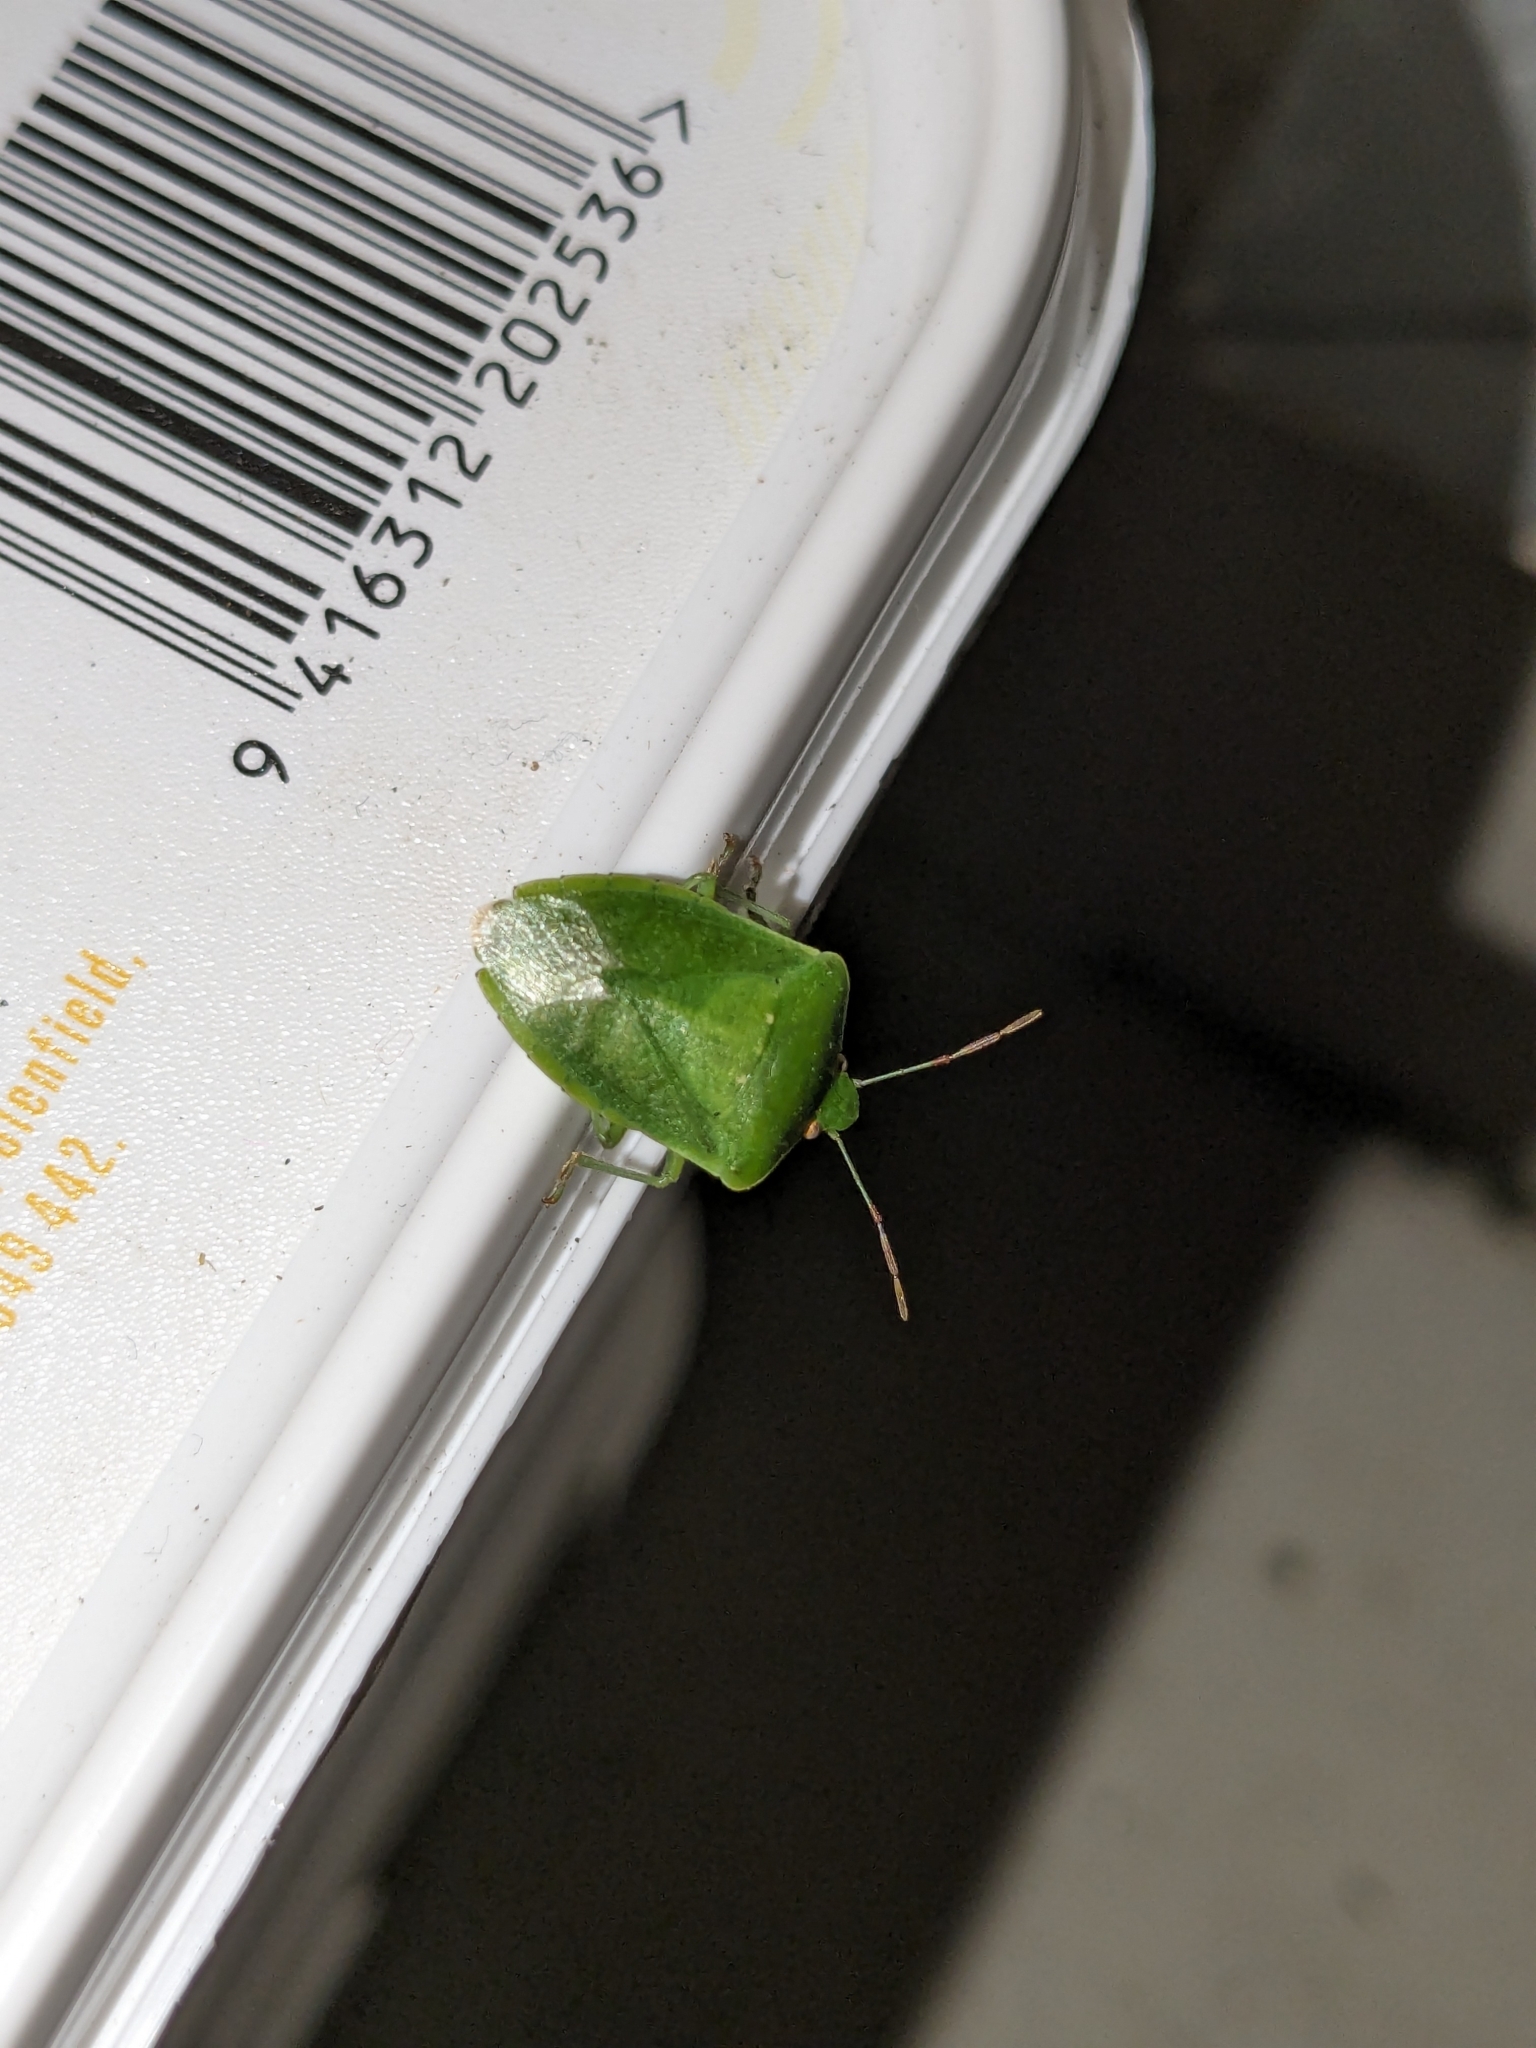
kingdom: Animalia
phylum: Arthropoda
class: Insecta
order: Hemiptera
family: Pentatomidae
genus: Nezara
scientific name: Nezara viridula
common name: Southern green stink bug
